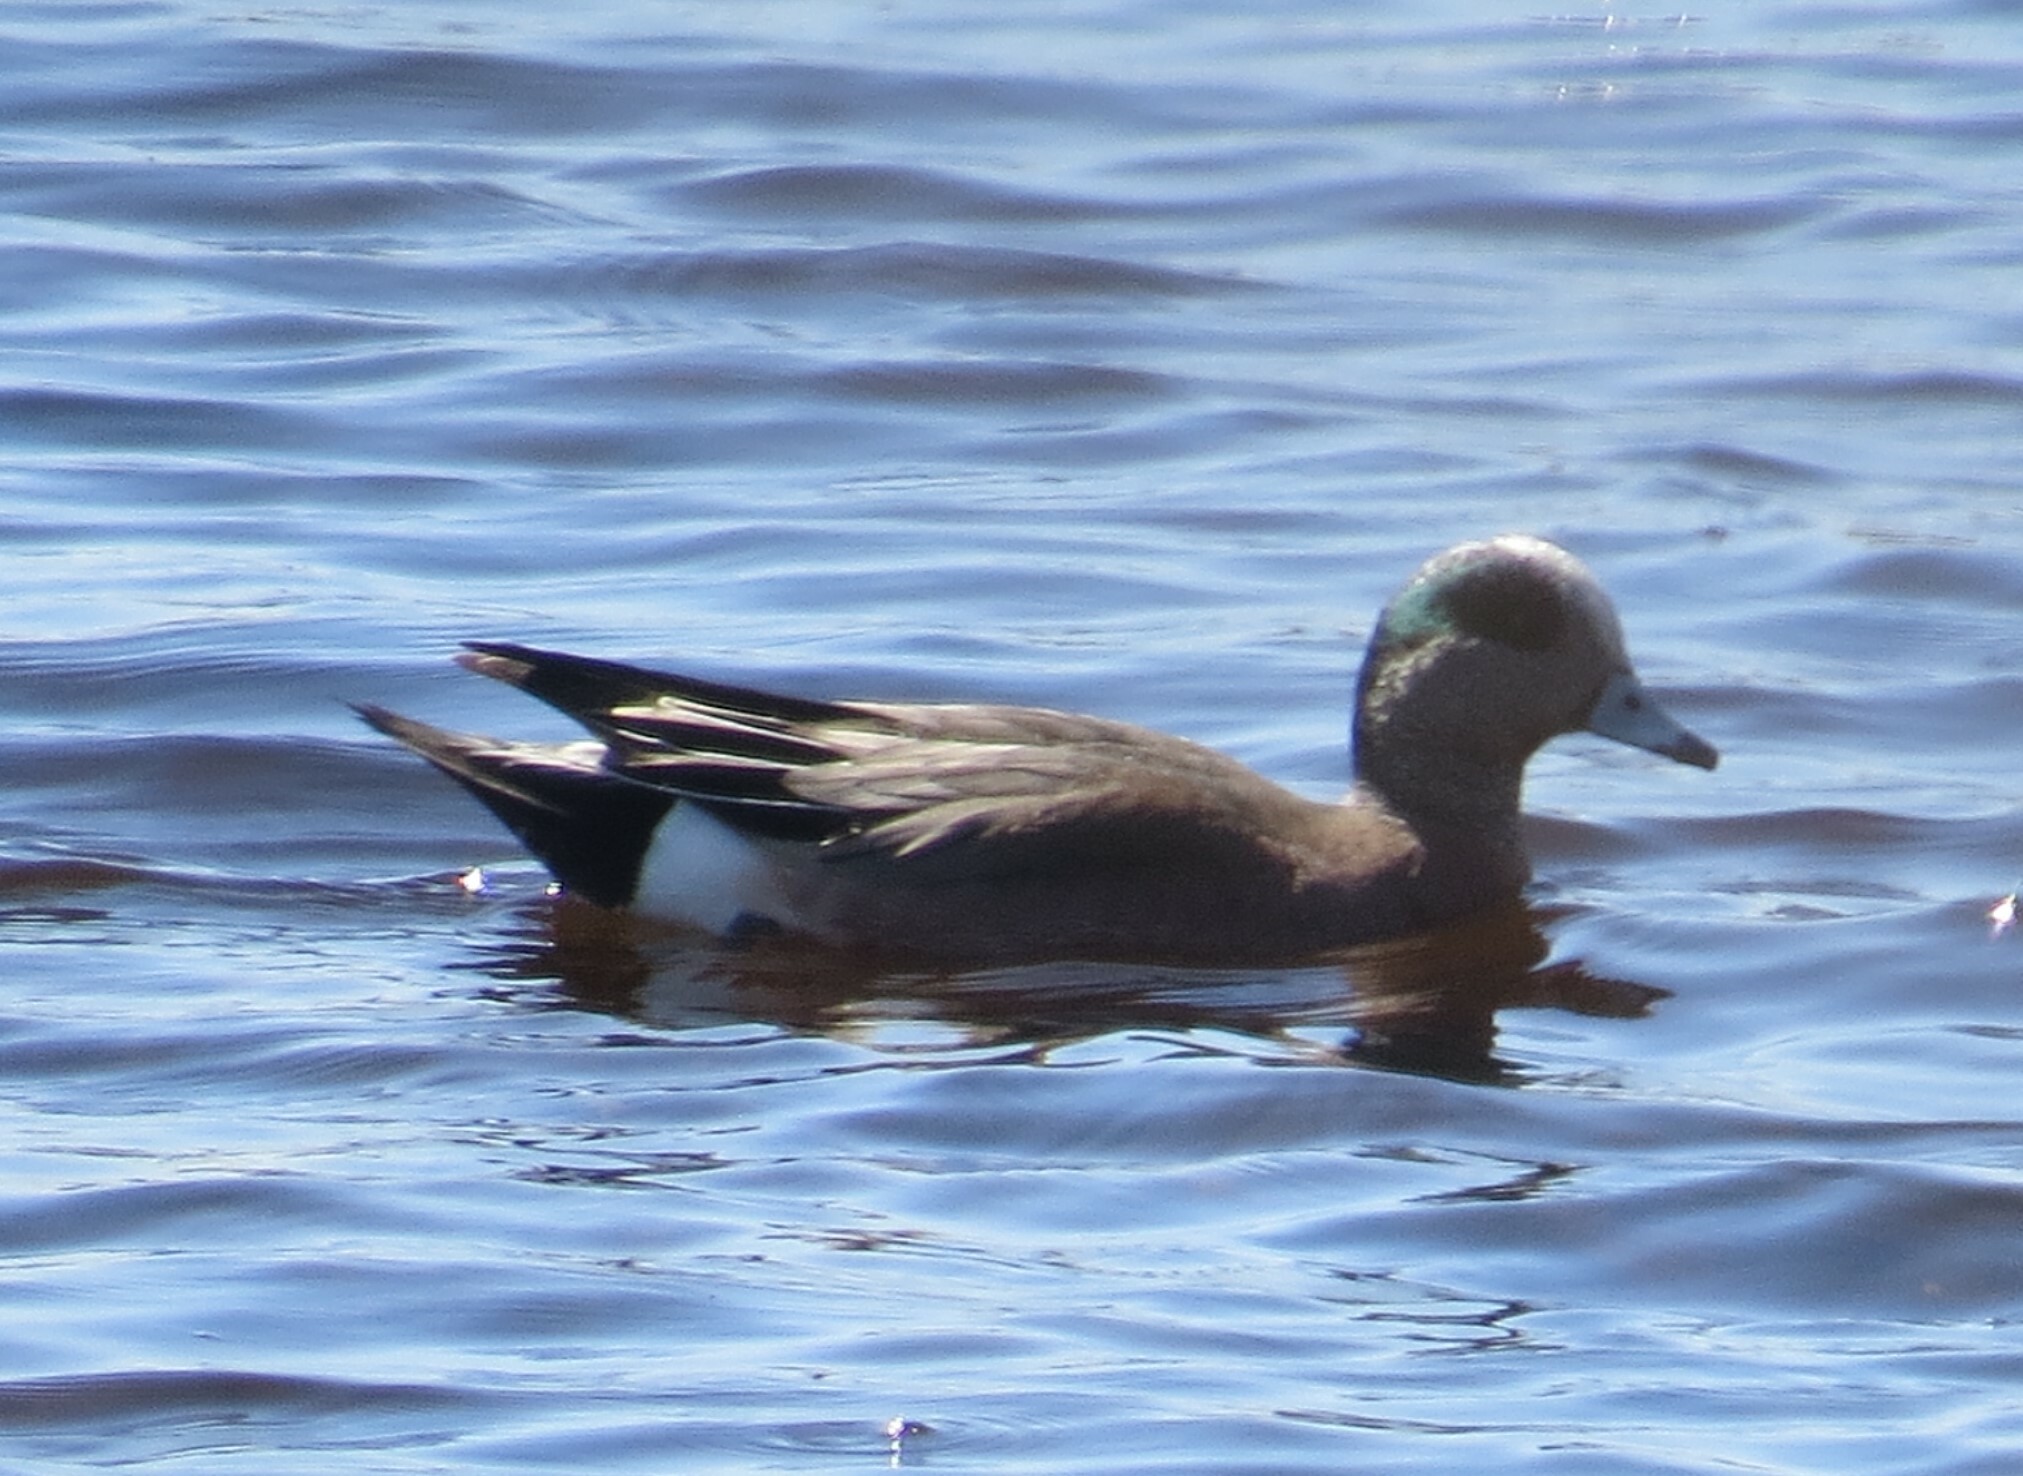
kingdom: Animalia
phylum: Chordata
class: Aves
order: Anseriformes
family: Anatidae
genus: Mareca
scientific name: Mareca americana
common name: American wigeon
